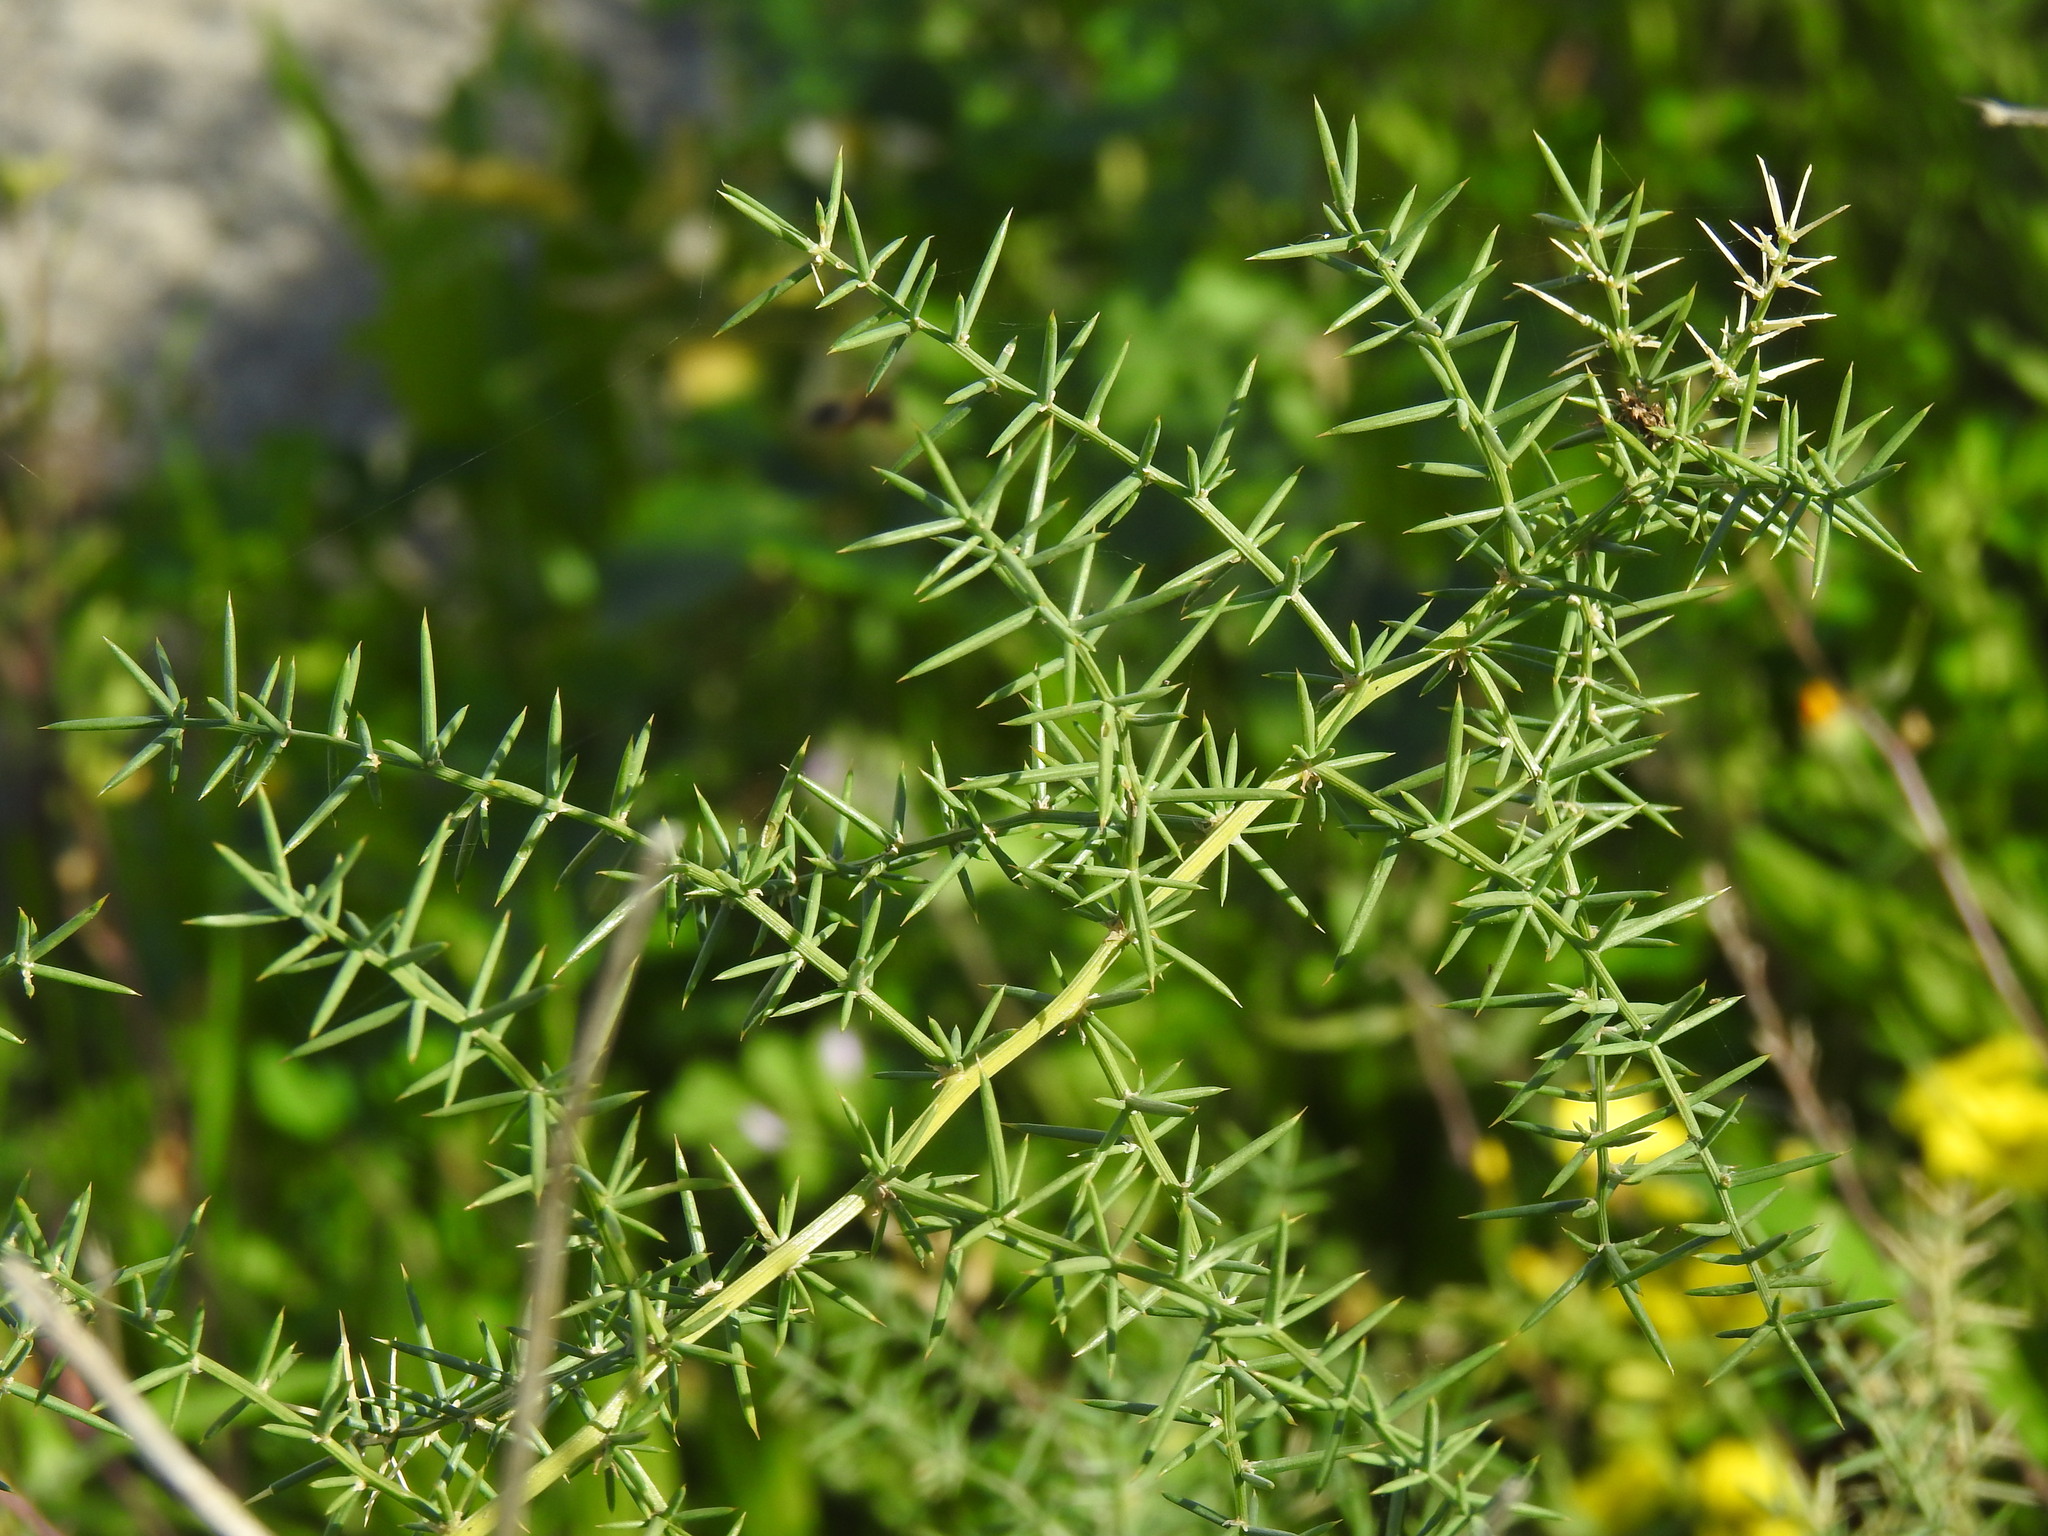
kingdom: Plantae
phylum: Tracheophyta
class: Liliopsida
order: Asparagales
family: Asparagaceae
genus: Asparagus
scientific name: Asparagus aphyllus
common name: Mediterranean asparagus
